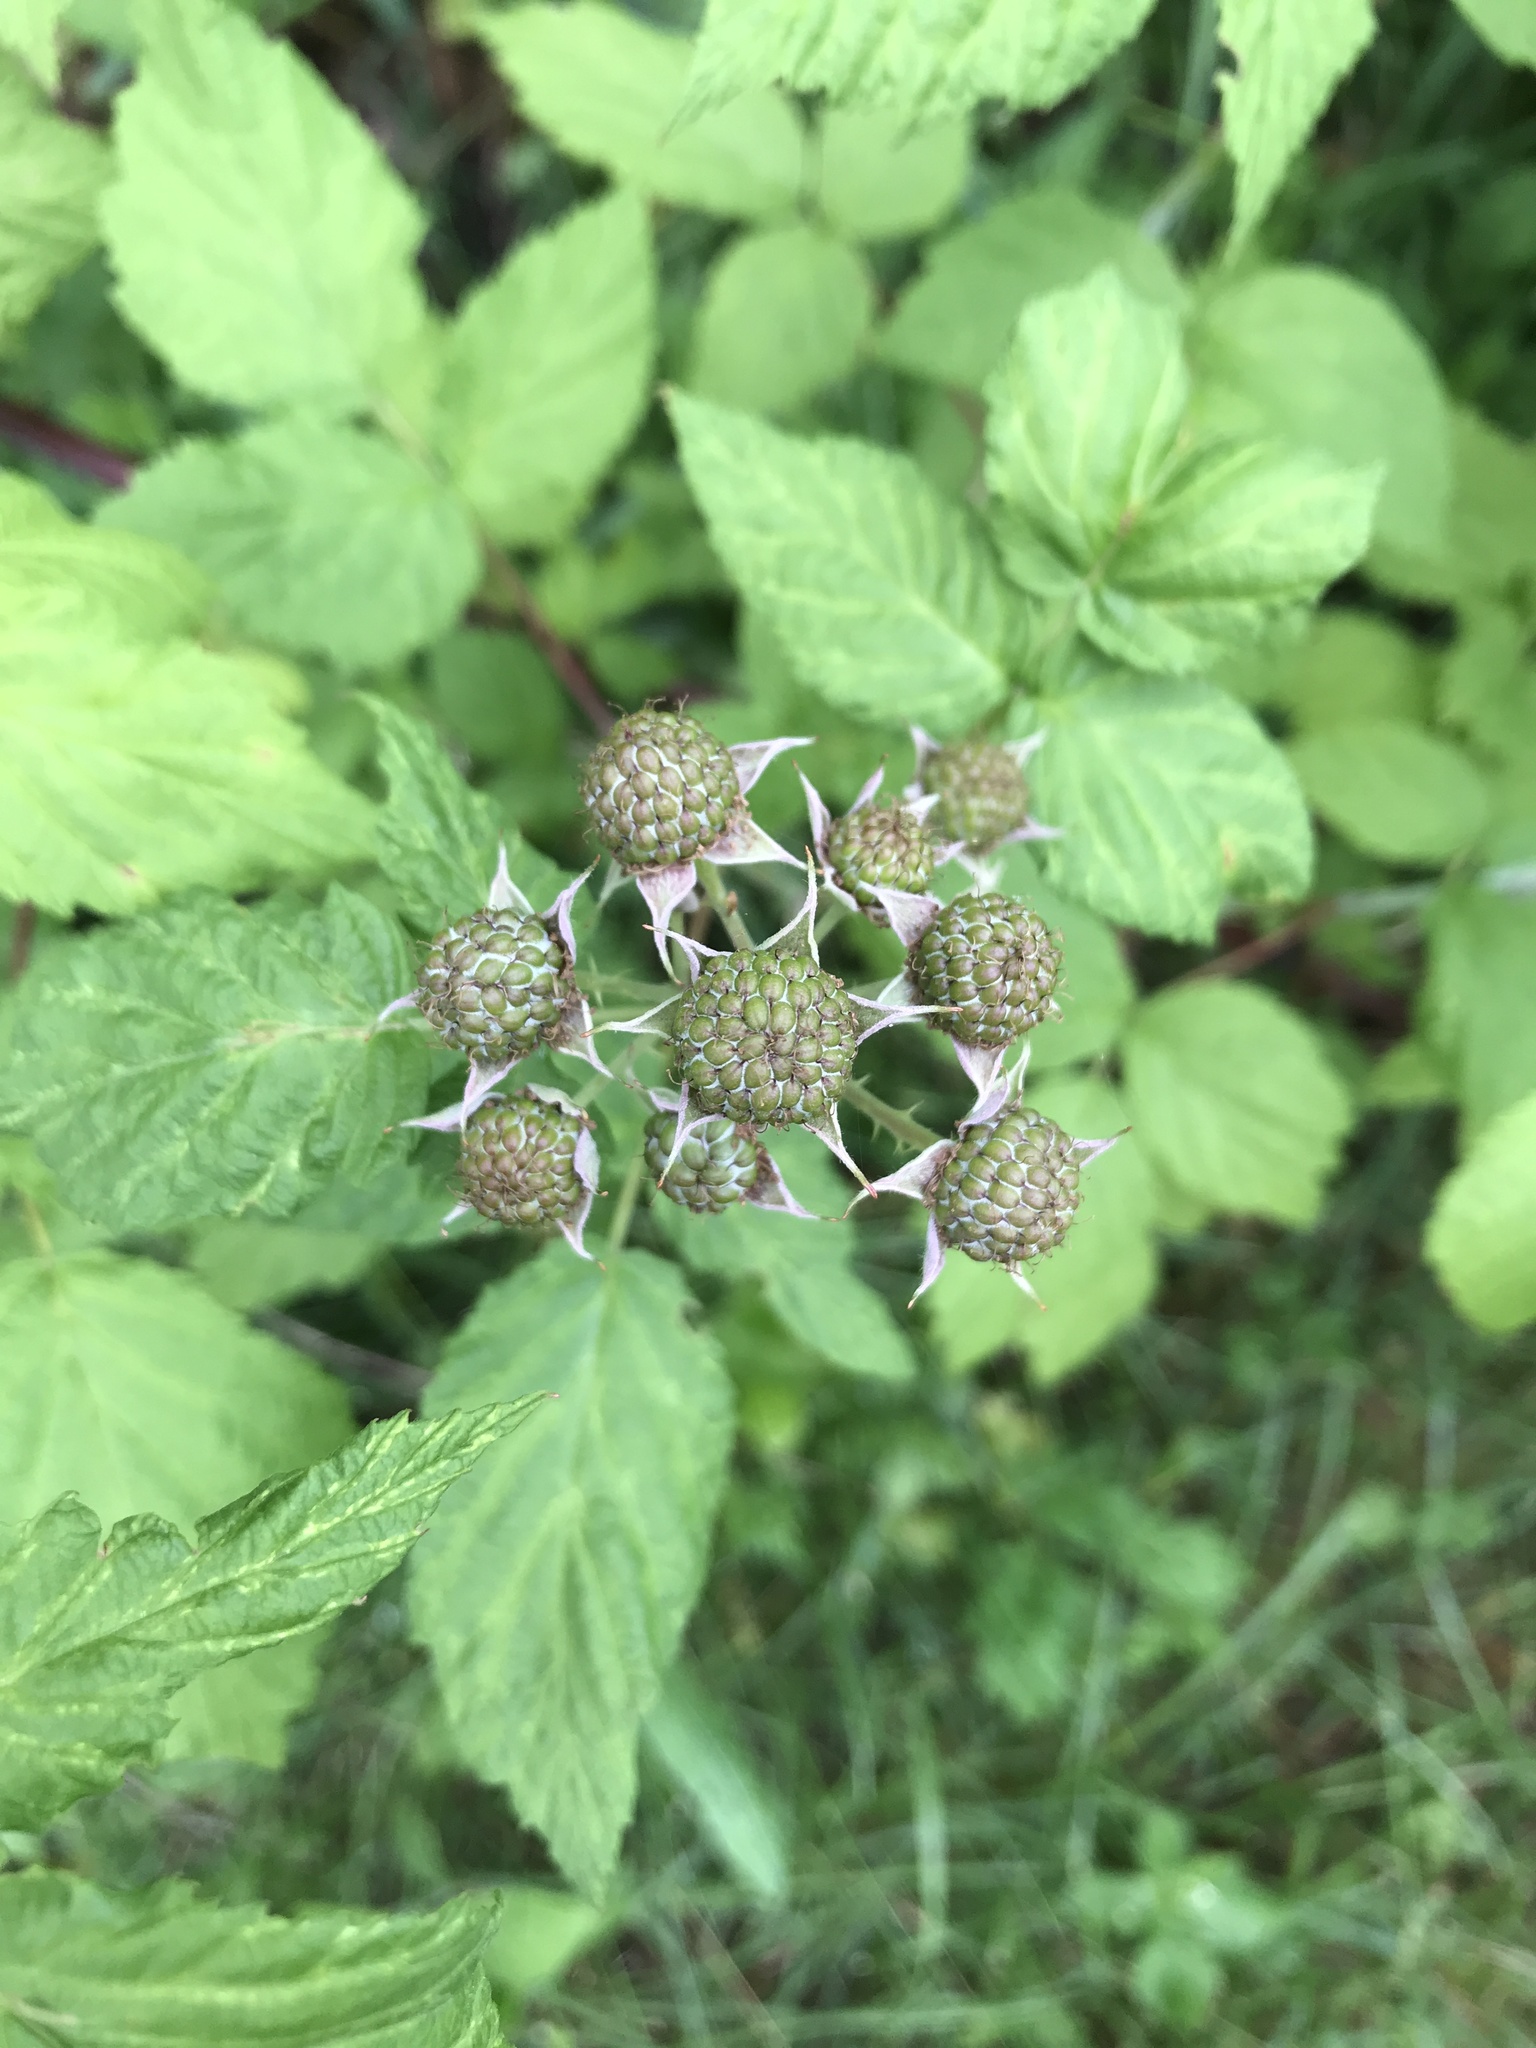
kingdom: Plantae
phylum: Tracheophyta
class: Magnoliopsida
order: Rosales
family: Rosaceae
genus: Rubus
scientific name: Rubus occidentalis
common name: Black raspberry
